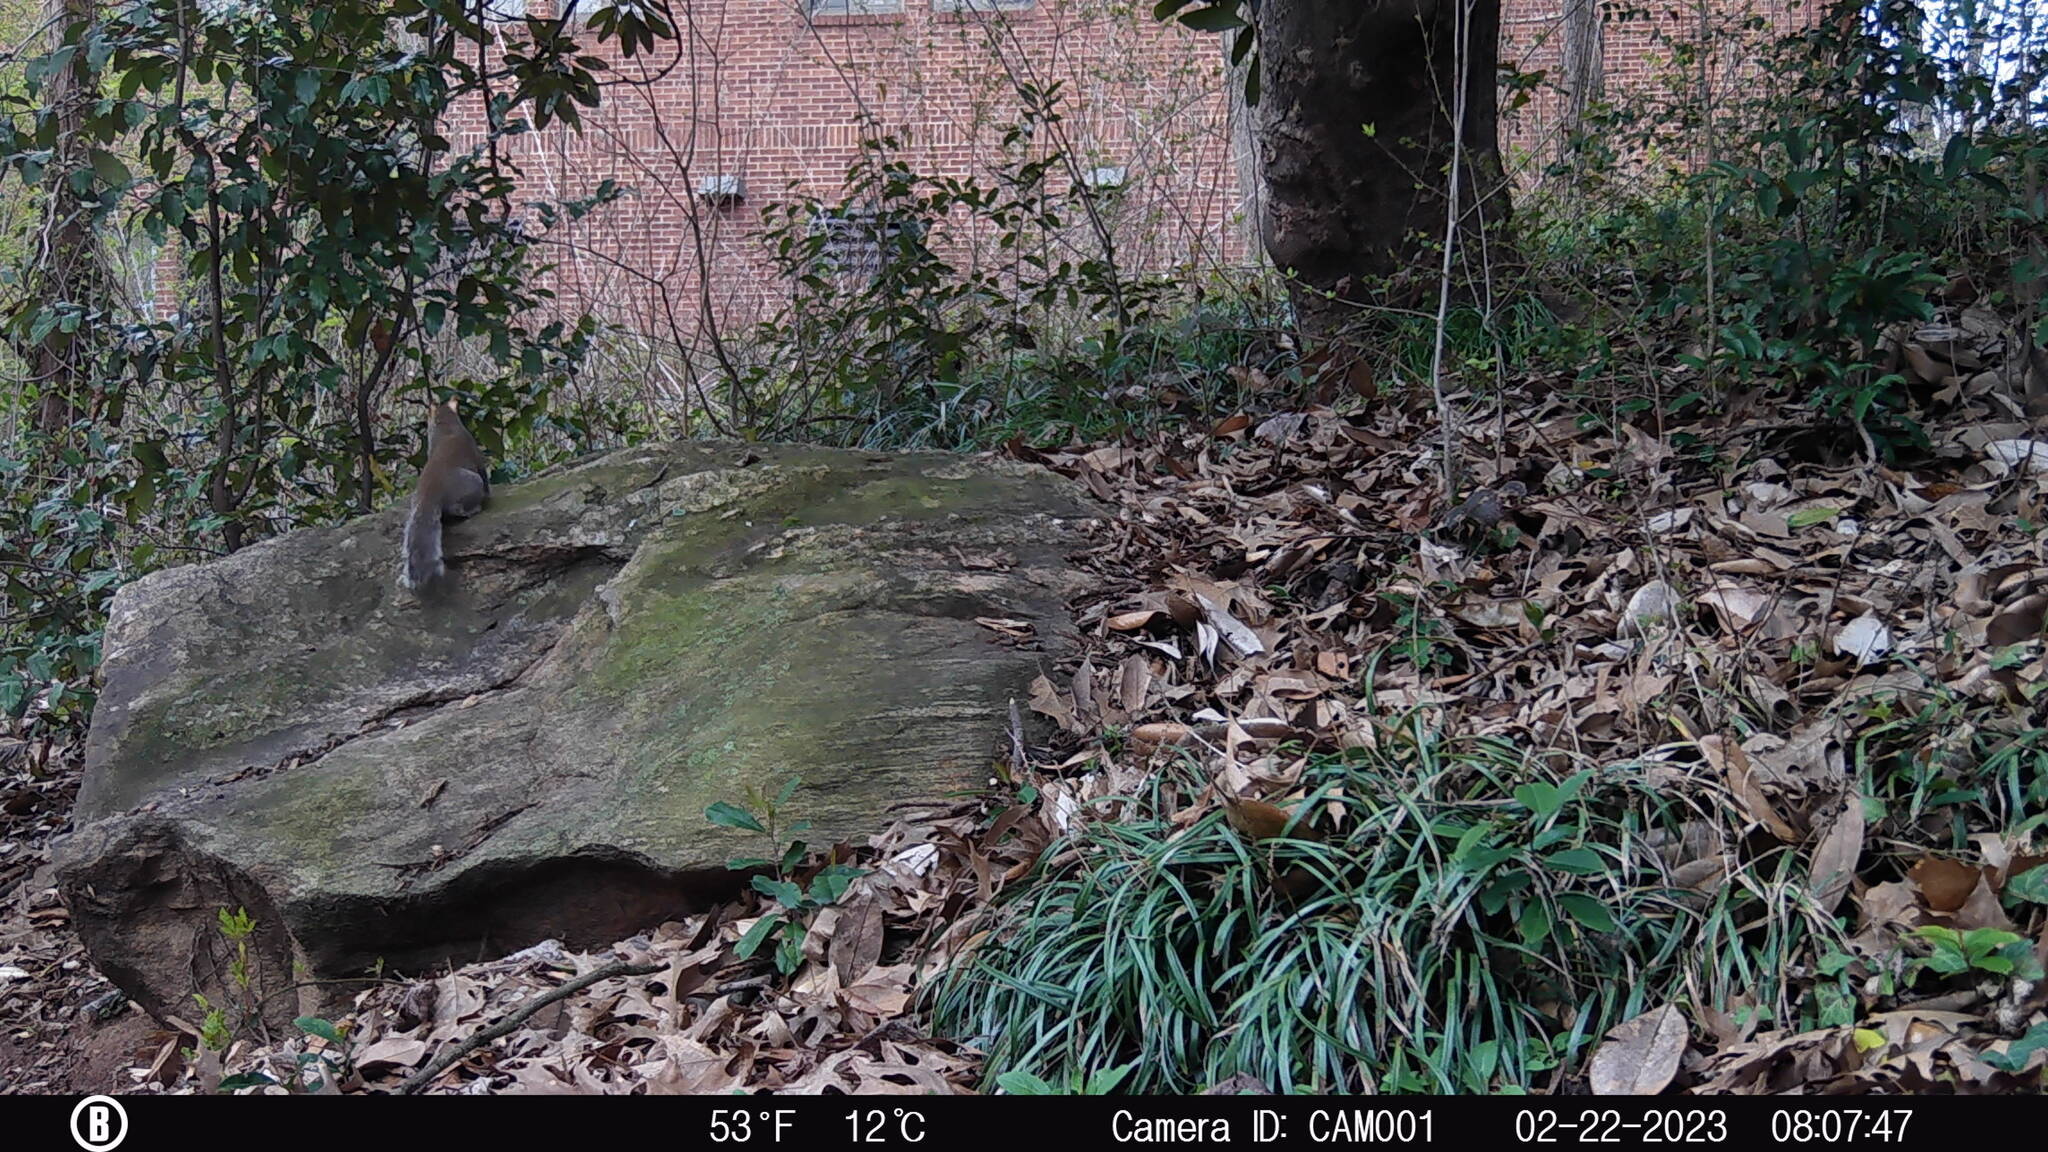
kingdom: Animalia
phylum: Chordata
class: Mammalia
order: Rodentia
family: Sciuridae
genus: Sciurus
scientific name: Sciurus carolinensis
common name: Eastern gray squirrel
